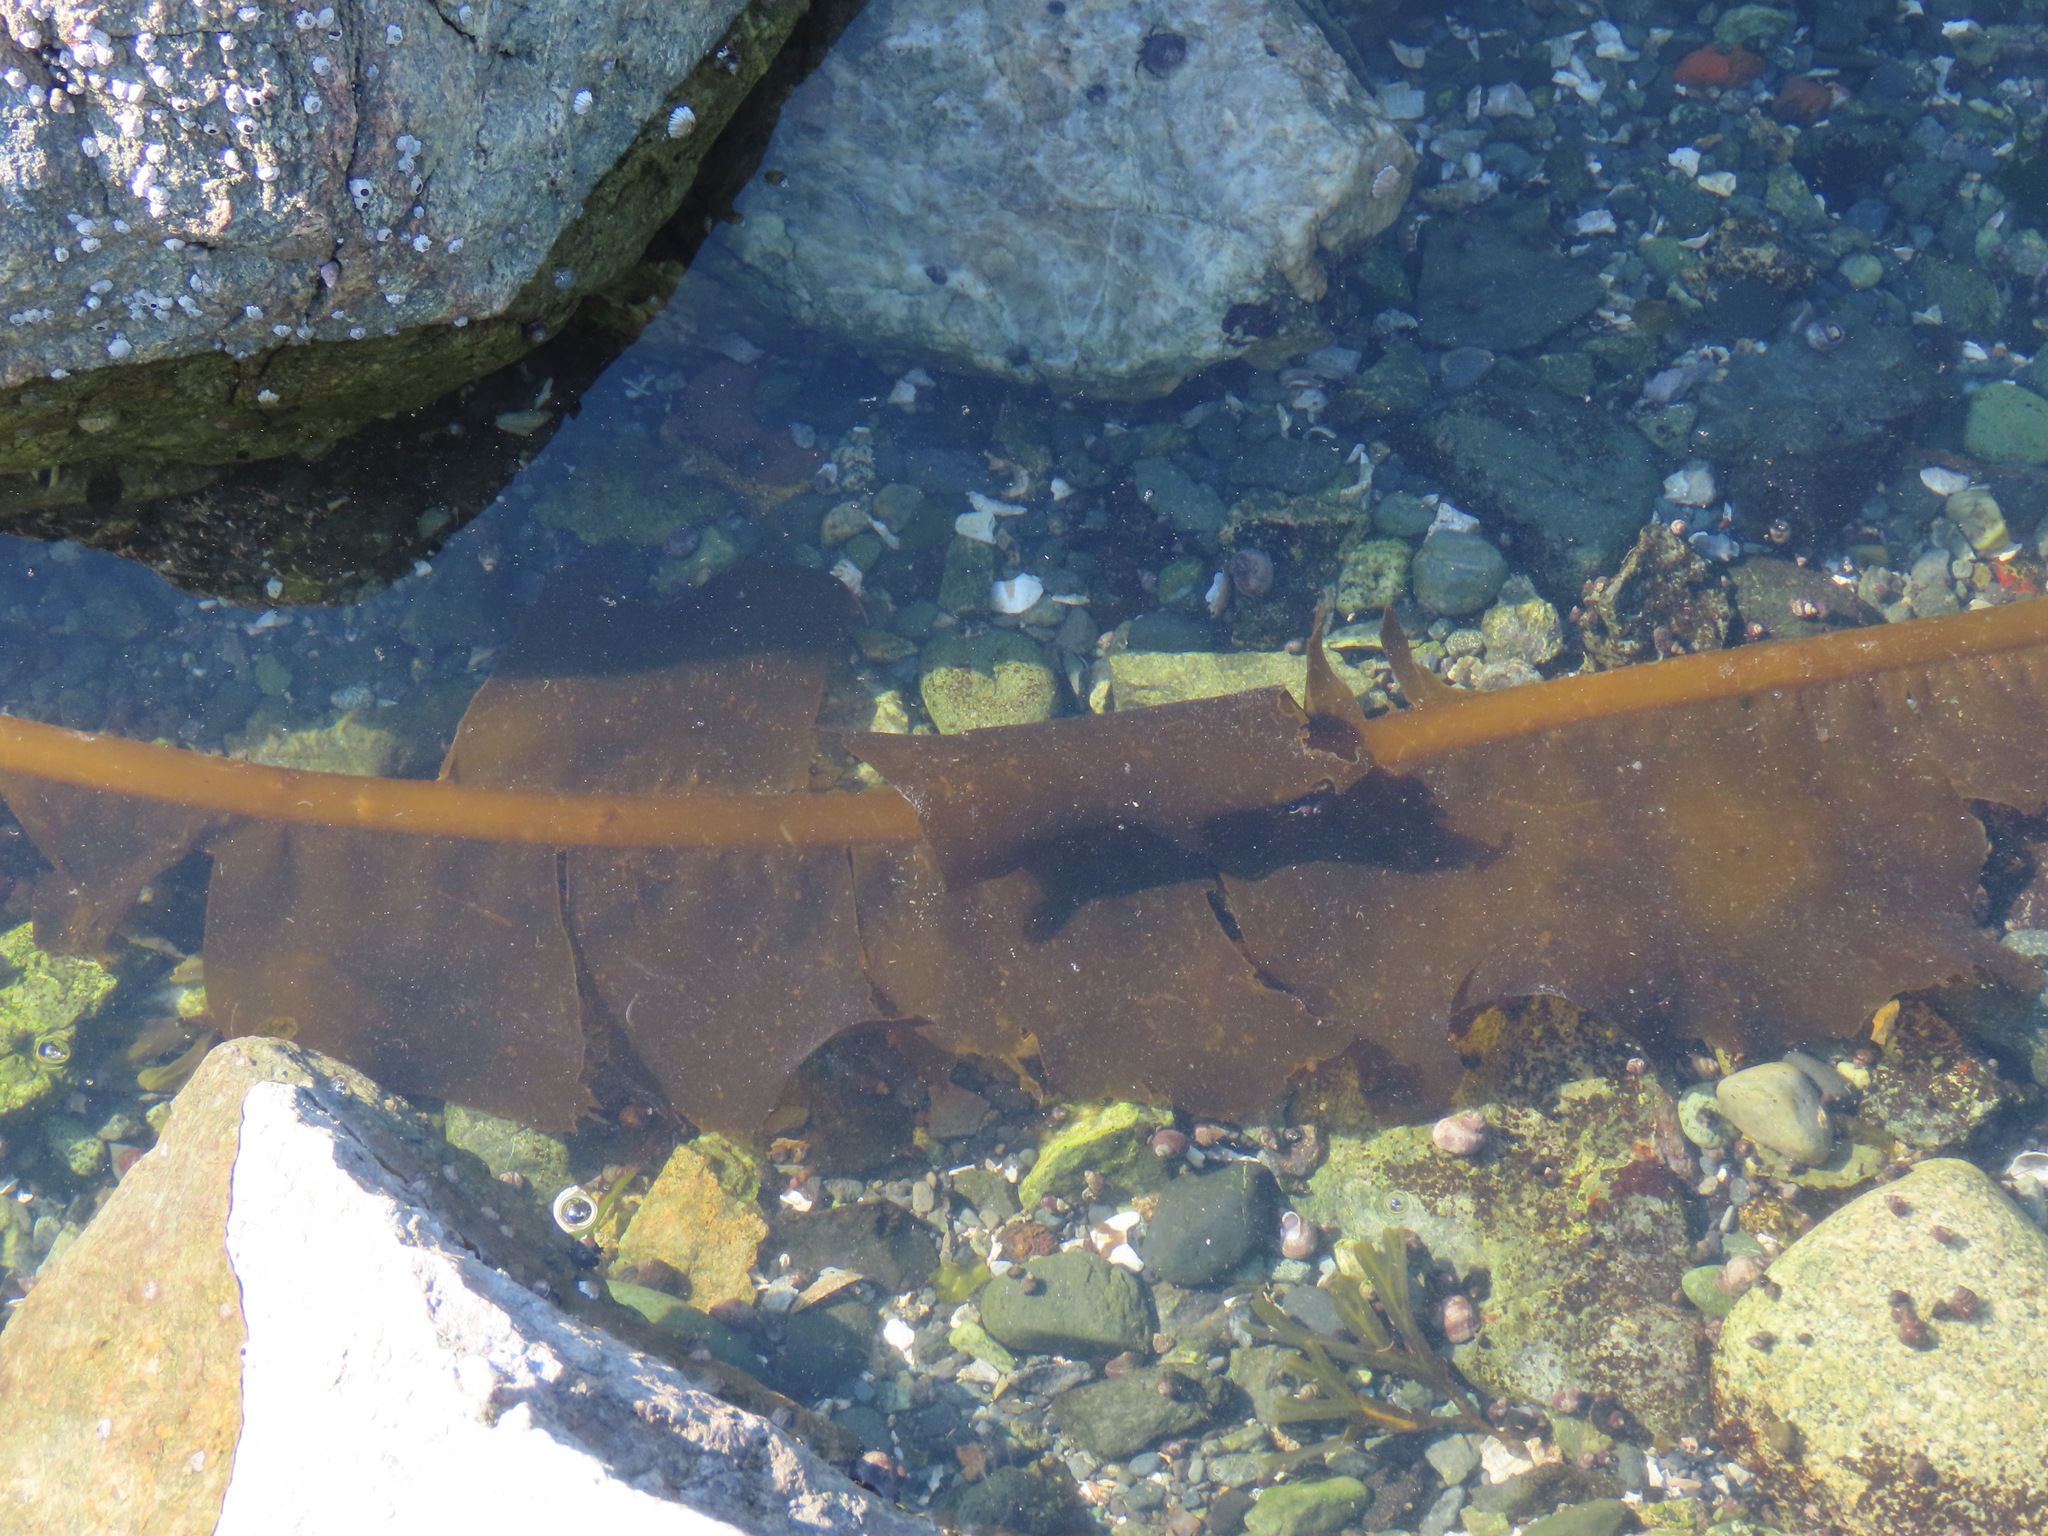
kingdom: Chromista
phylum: Ochrophyta
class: Phaeophyceae
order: Laminariales
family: Alariaceae
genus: Alaria
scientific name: Alaria marginata
